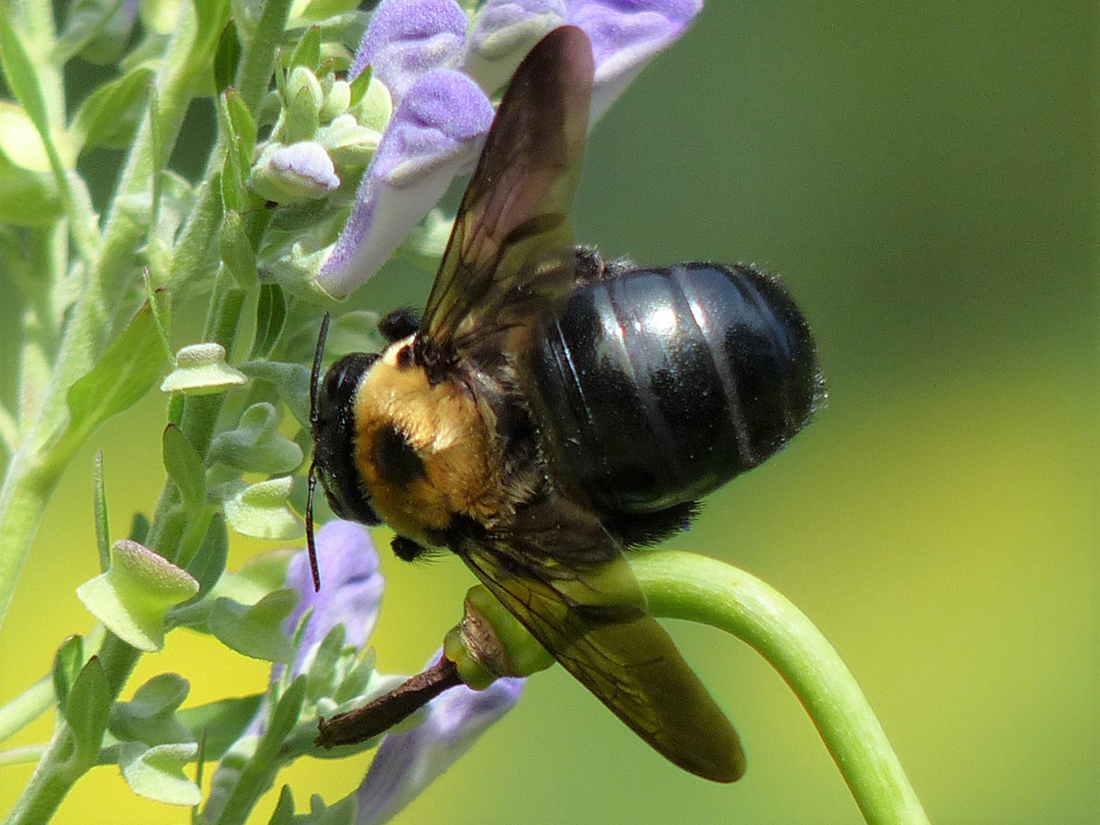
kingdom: Animalia
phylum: Arthropoda
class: Insecta
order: Hymenoptera
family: Apidae
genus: Xylocopa
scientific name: Xylocopa virginica
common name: Carpenter bee
